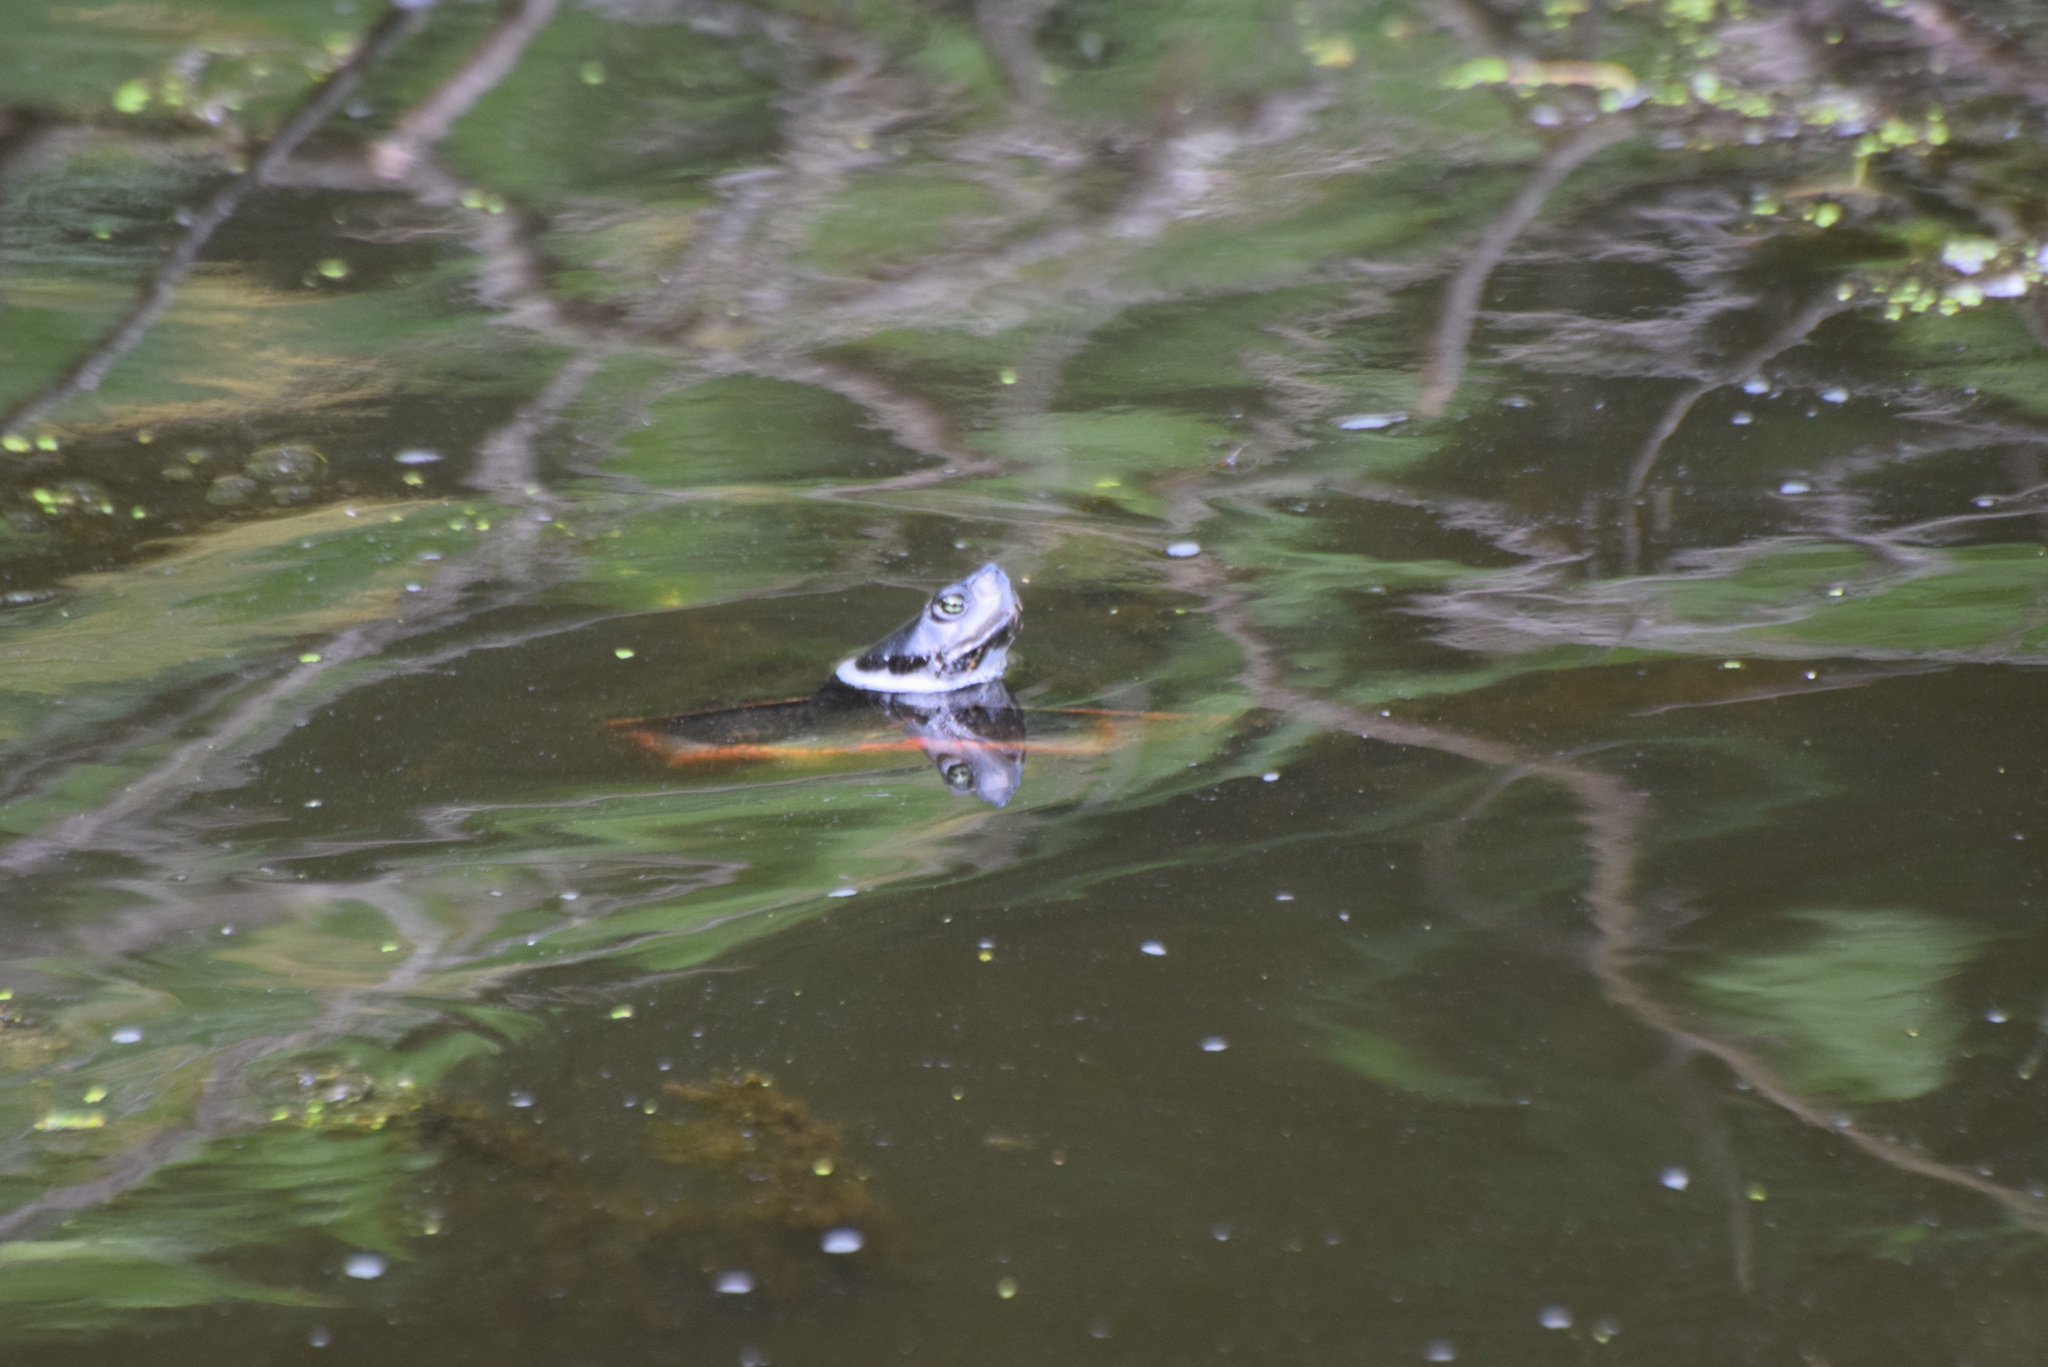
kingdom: Animalia
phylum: Chordata
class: Testudines
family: Emydidae
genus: Pseudemys
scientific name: Pseudemys rubriventris
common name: American red-bellied turtle
